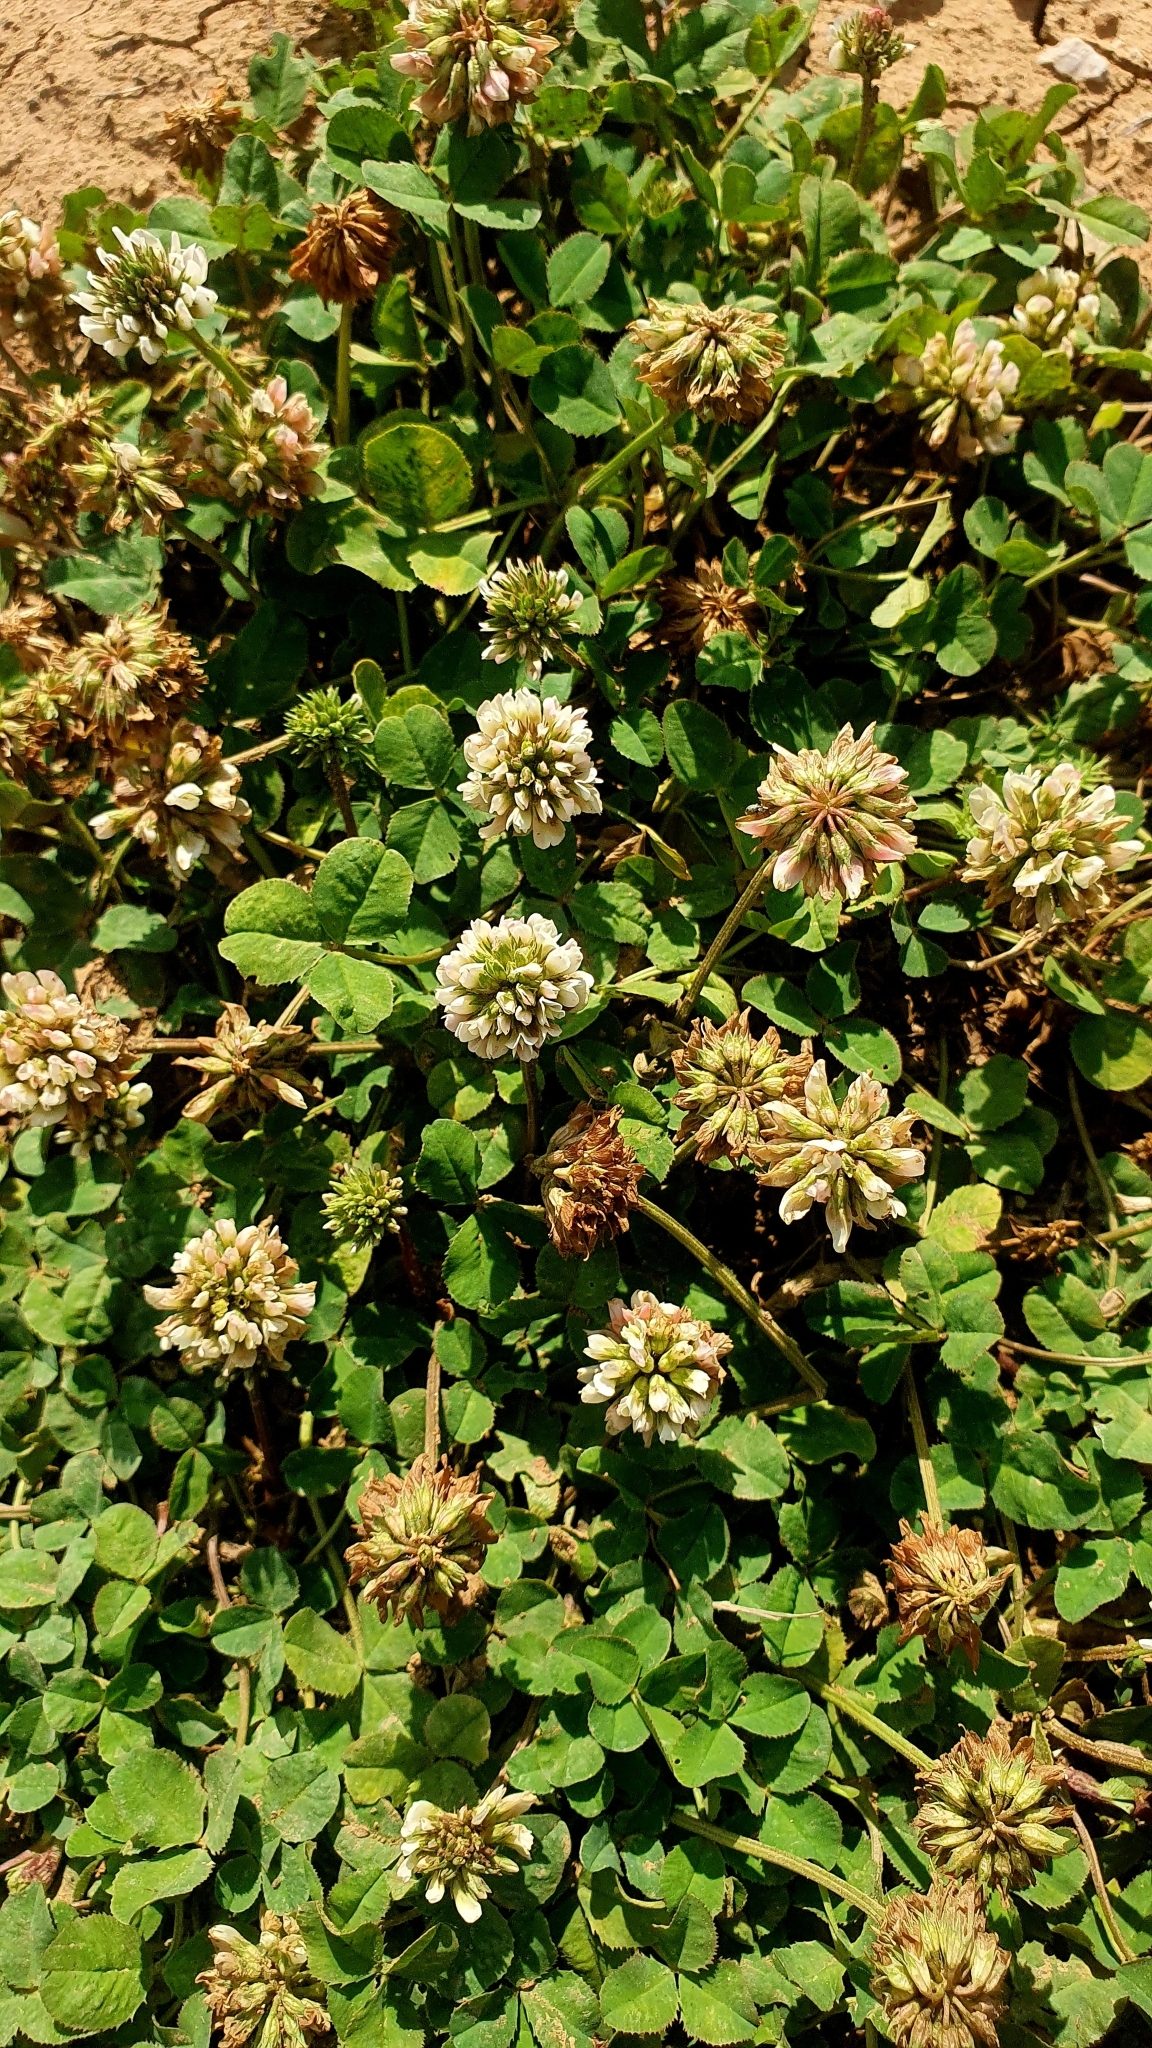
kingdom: Plantae
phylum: Tracheophyta
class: Magnoliopsida
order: Fabales
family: Fabaceae
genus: Trifolium
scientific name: Trifolium repens
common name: White clover
